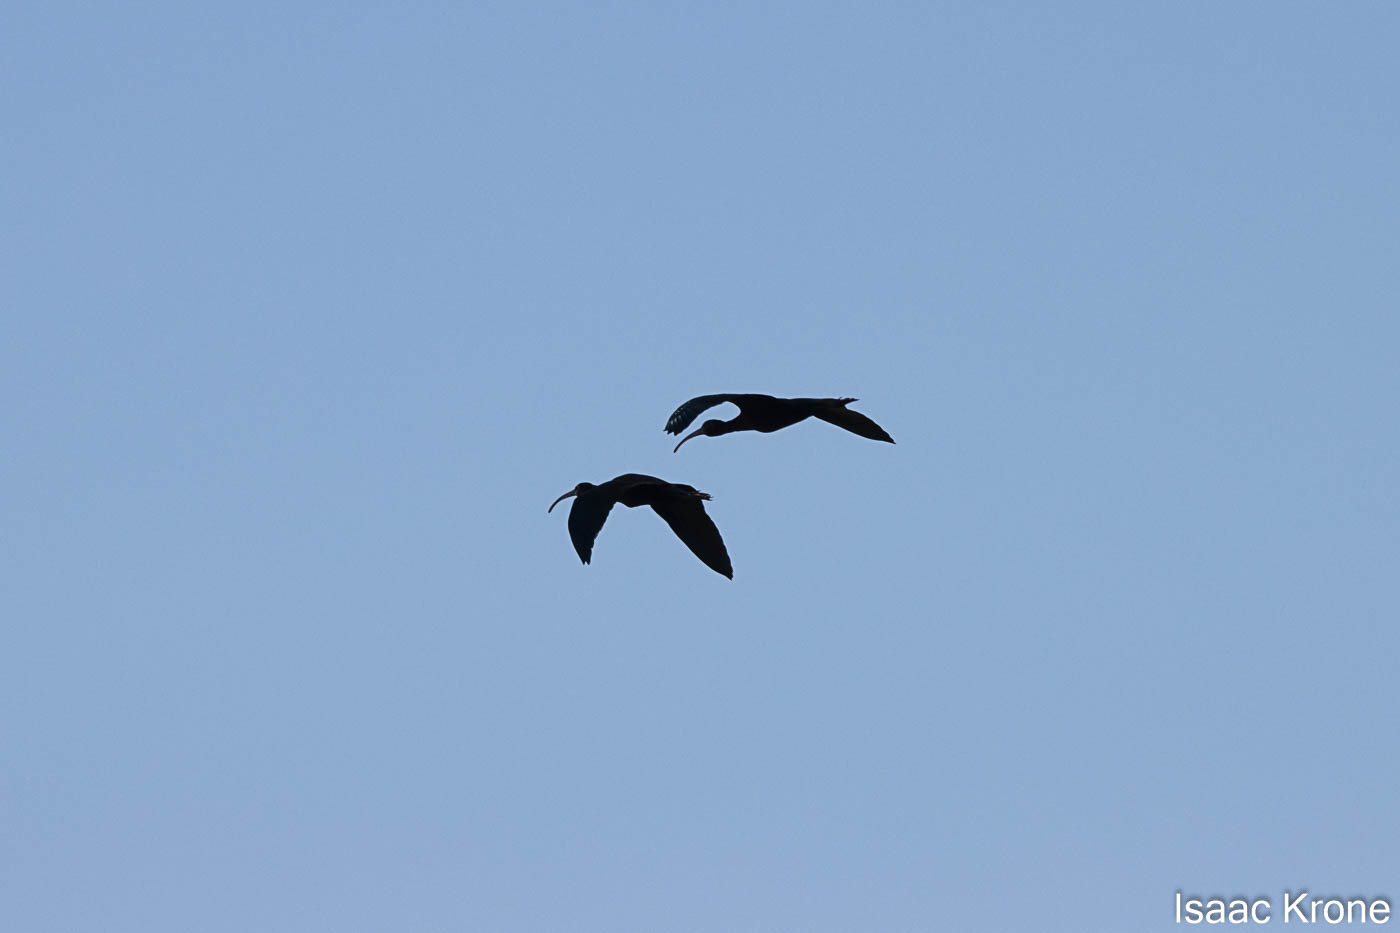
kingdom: Animalia
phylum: Chordata
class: Aves
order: Pelecaniformes
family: Threskiornithidae
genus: Plegadis
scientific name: Plegadis chihi
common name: White-faced ibis
